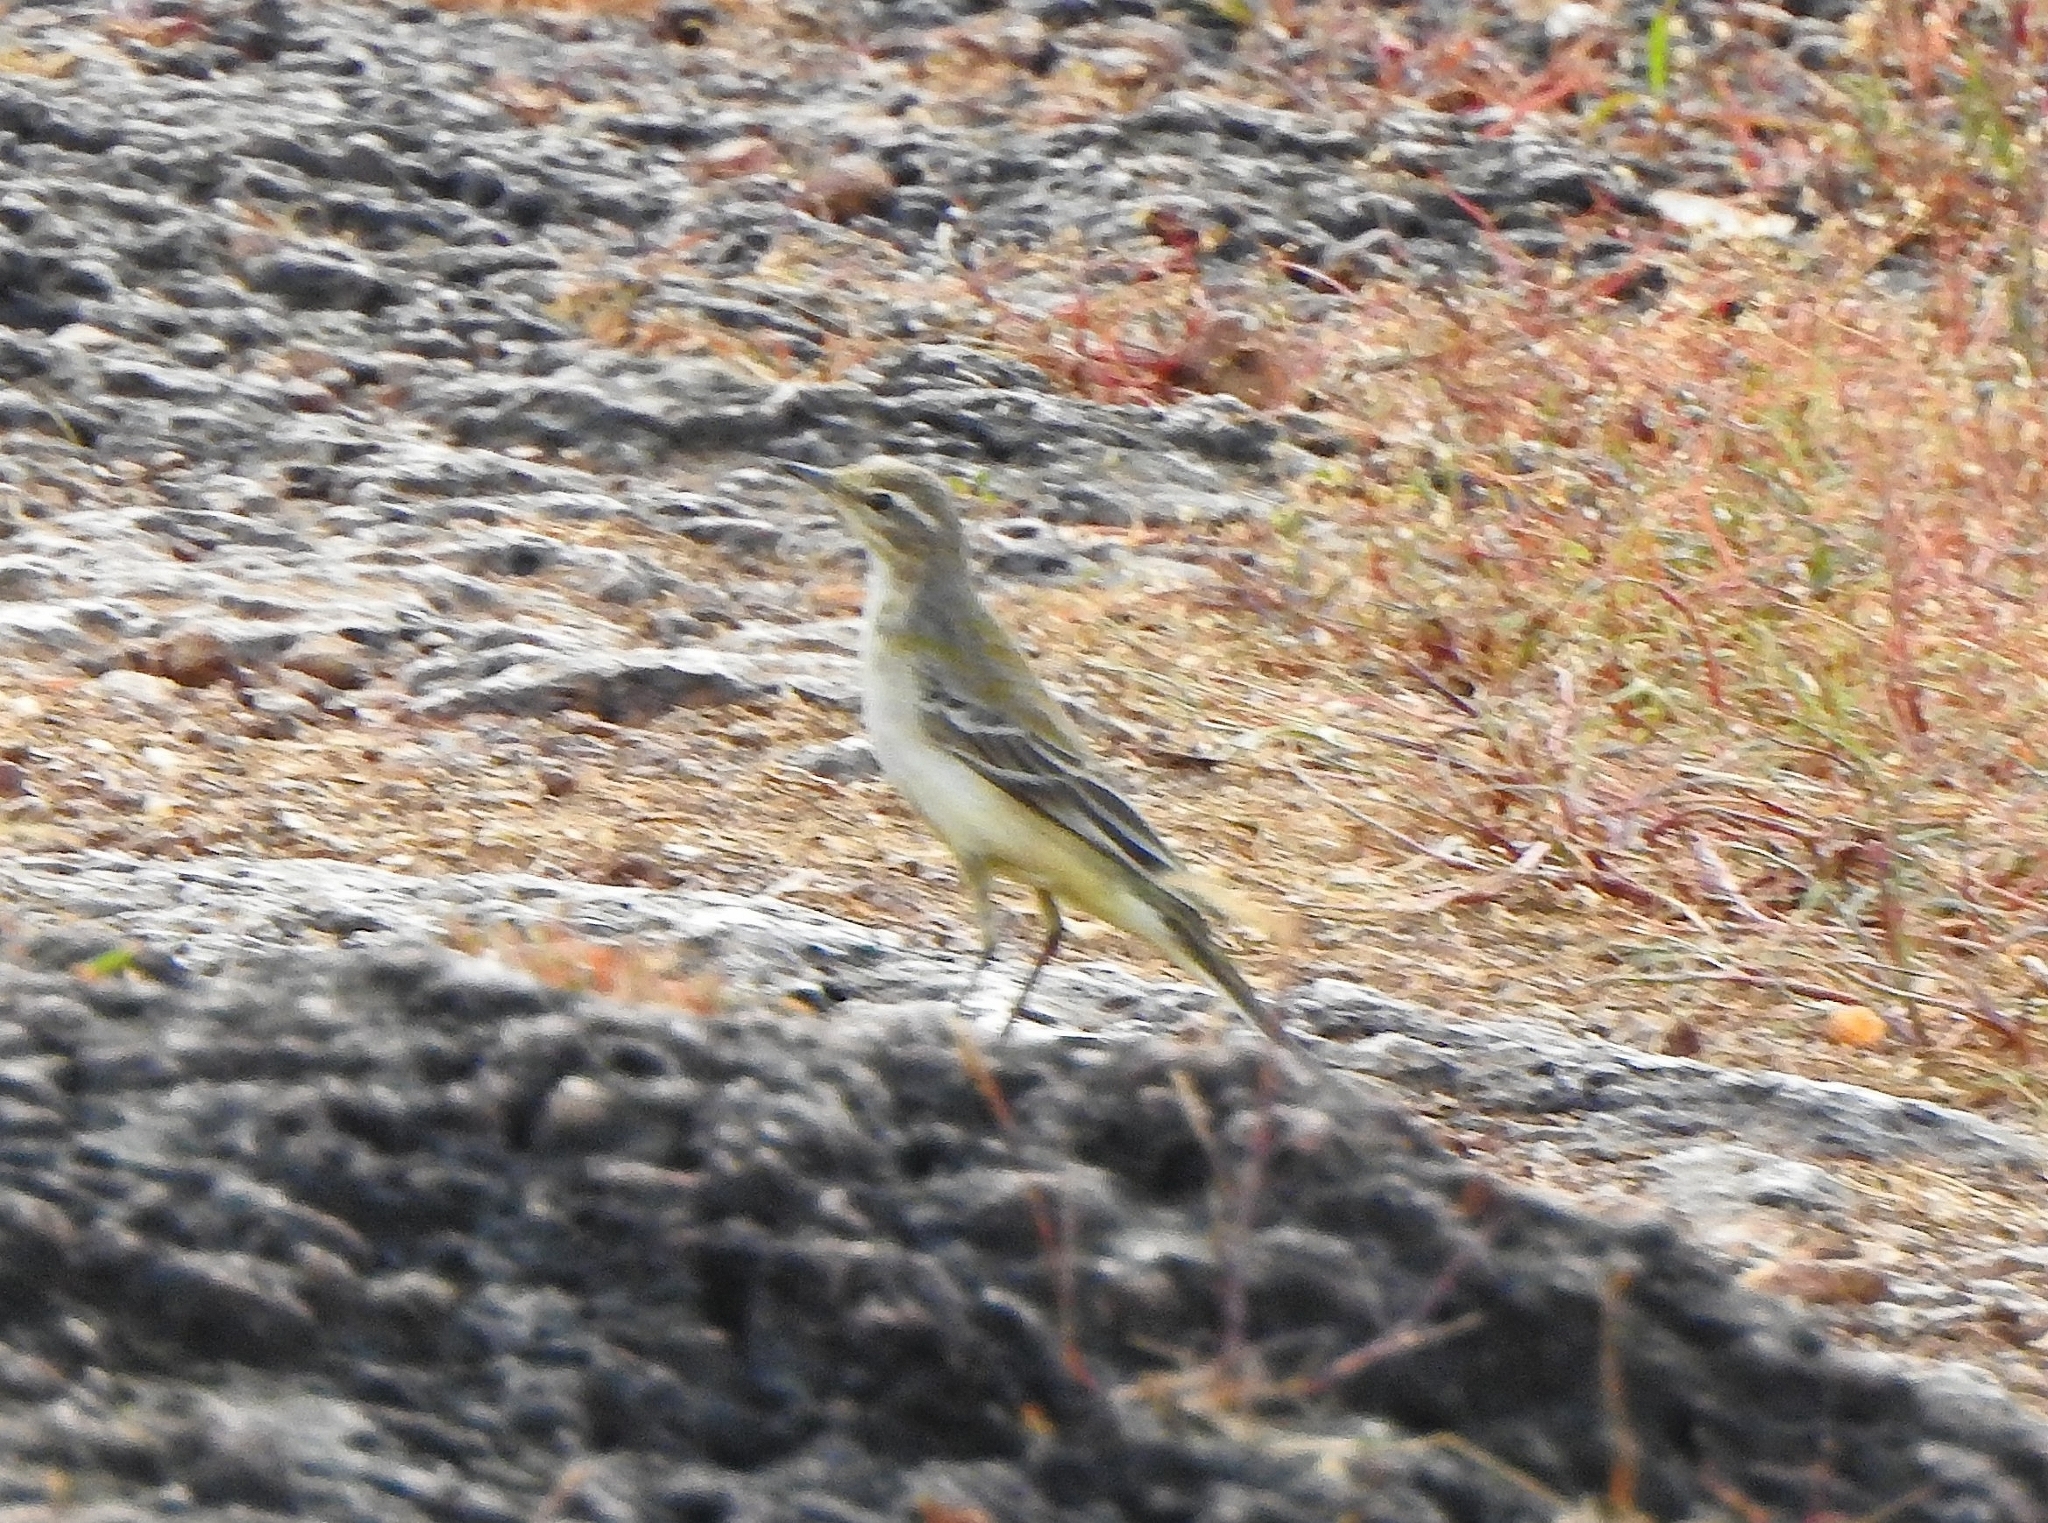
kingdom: Animalia
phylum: Chordata
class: Aves
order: Passeriformes
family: Motacillidae
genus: Motacilla
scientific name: Motacilla flava
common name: Western yellow wagtail
